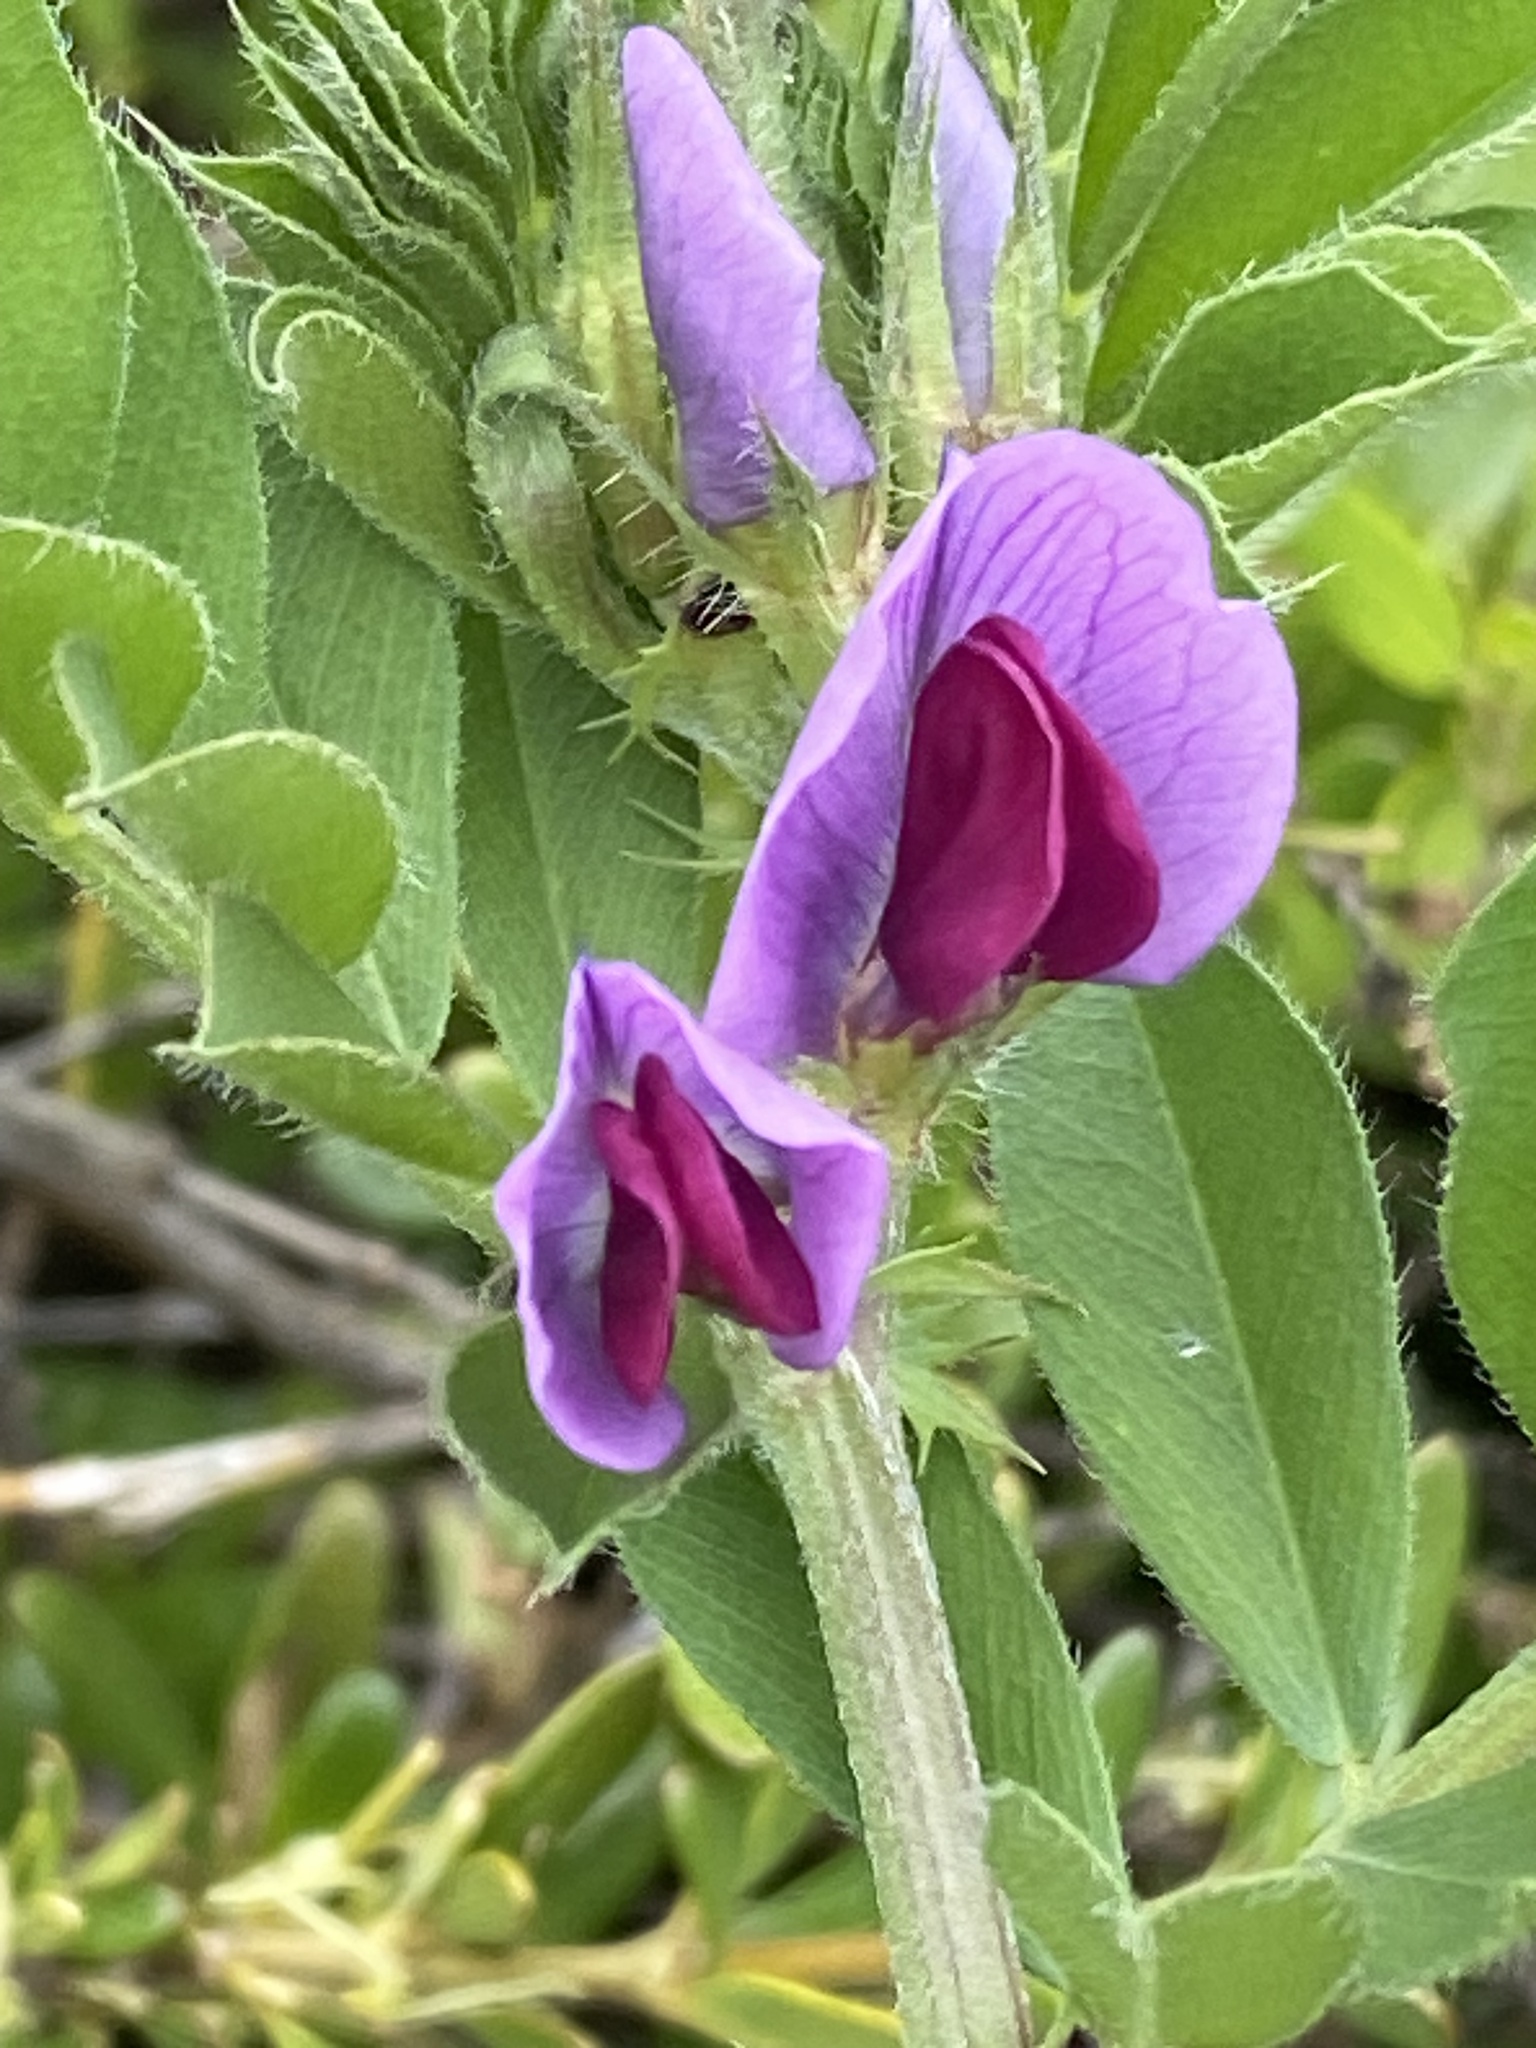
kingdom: Plantae
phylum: Tracheophyta
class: Magnoliopsida
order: Fabales
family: Fabaceae
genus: Vicia
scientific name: Vicia sativa
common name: Garden vetch
